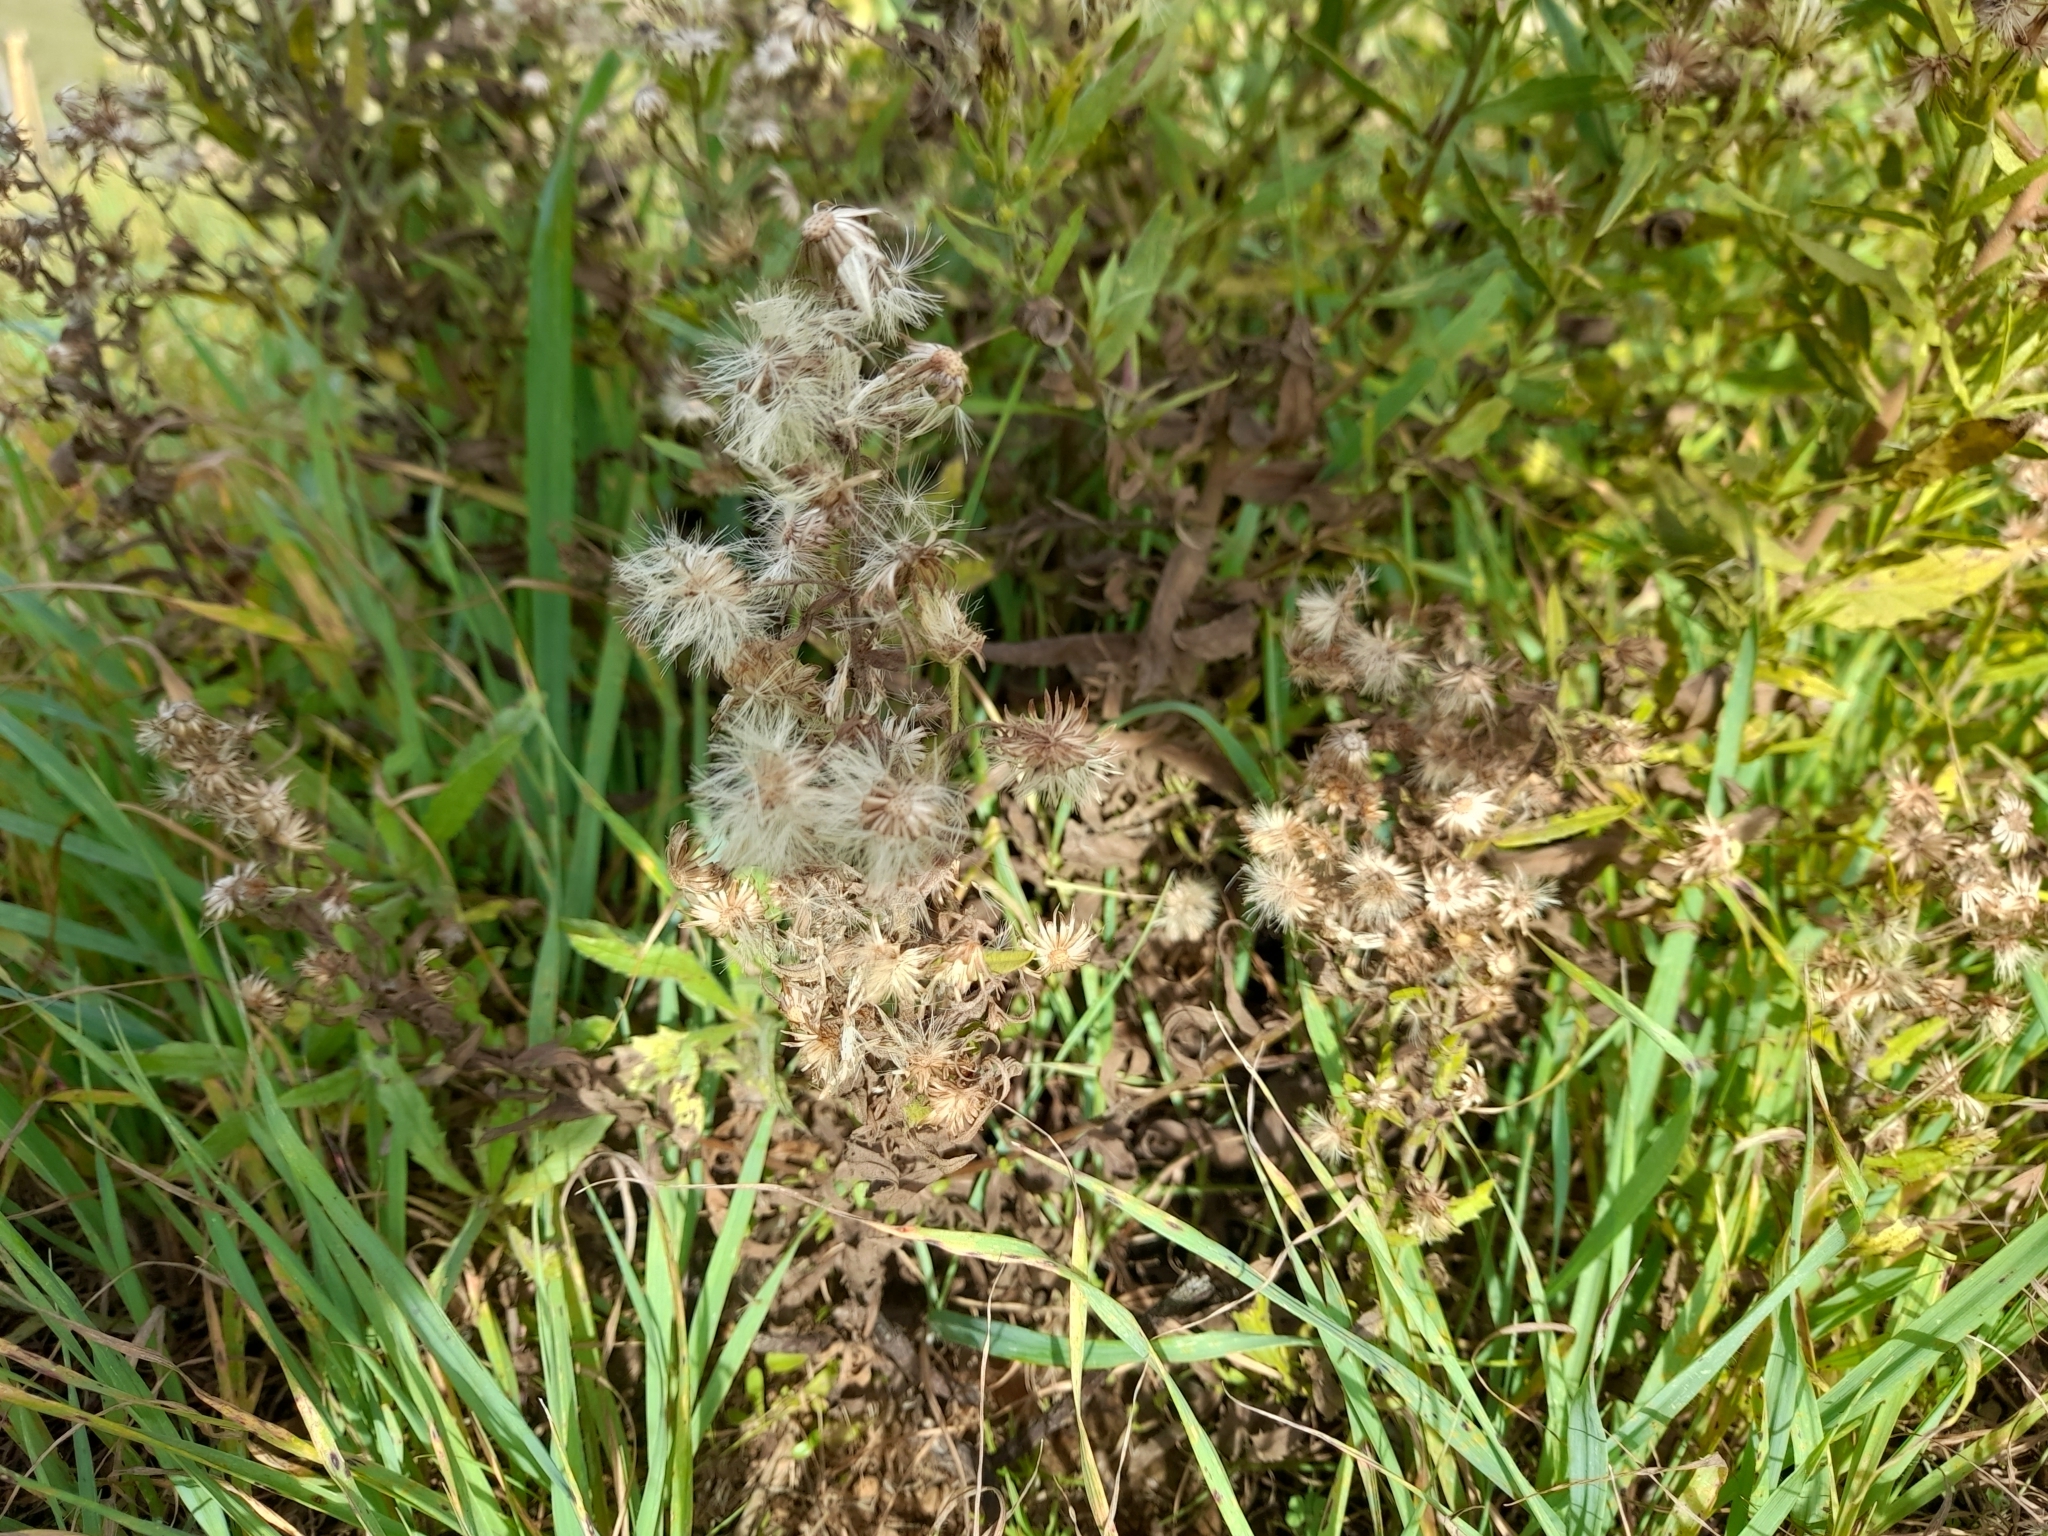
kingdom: Plantae
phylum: Tracheophyta
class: Magnoliopsida
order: Asterales
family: Asteraceae
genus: Dittrichia
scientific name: Dittrichia viscosa
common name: Woody fleabane
